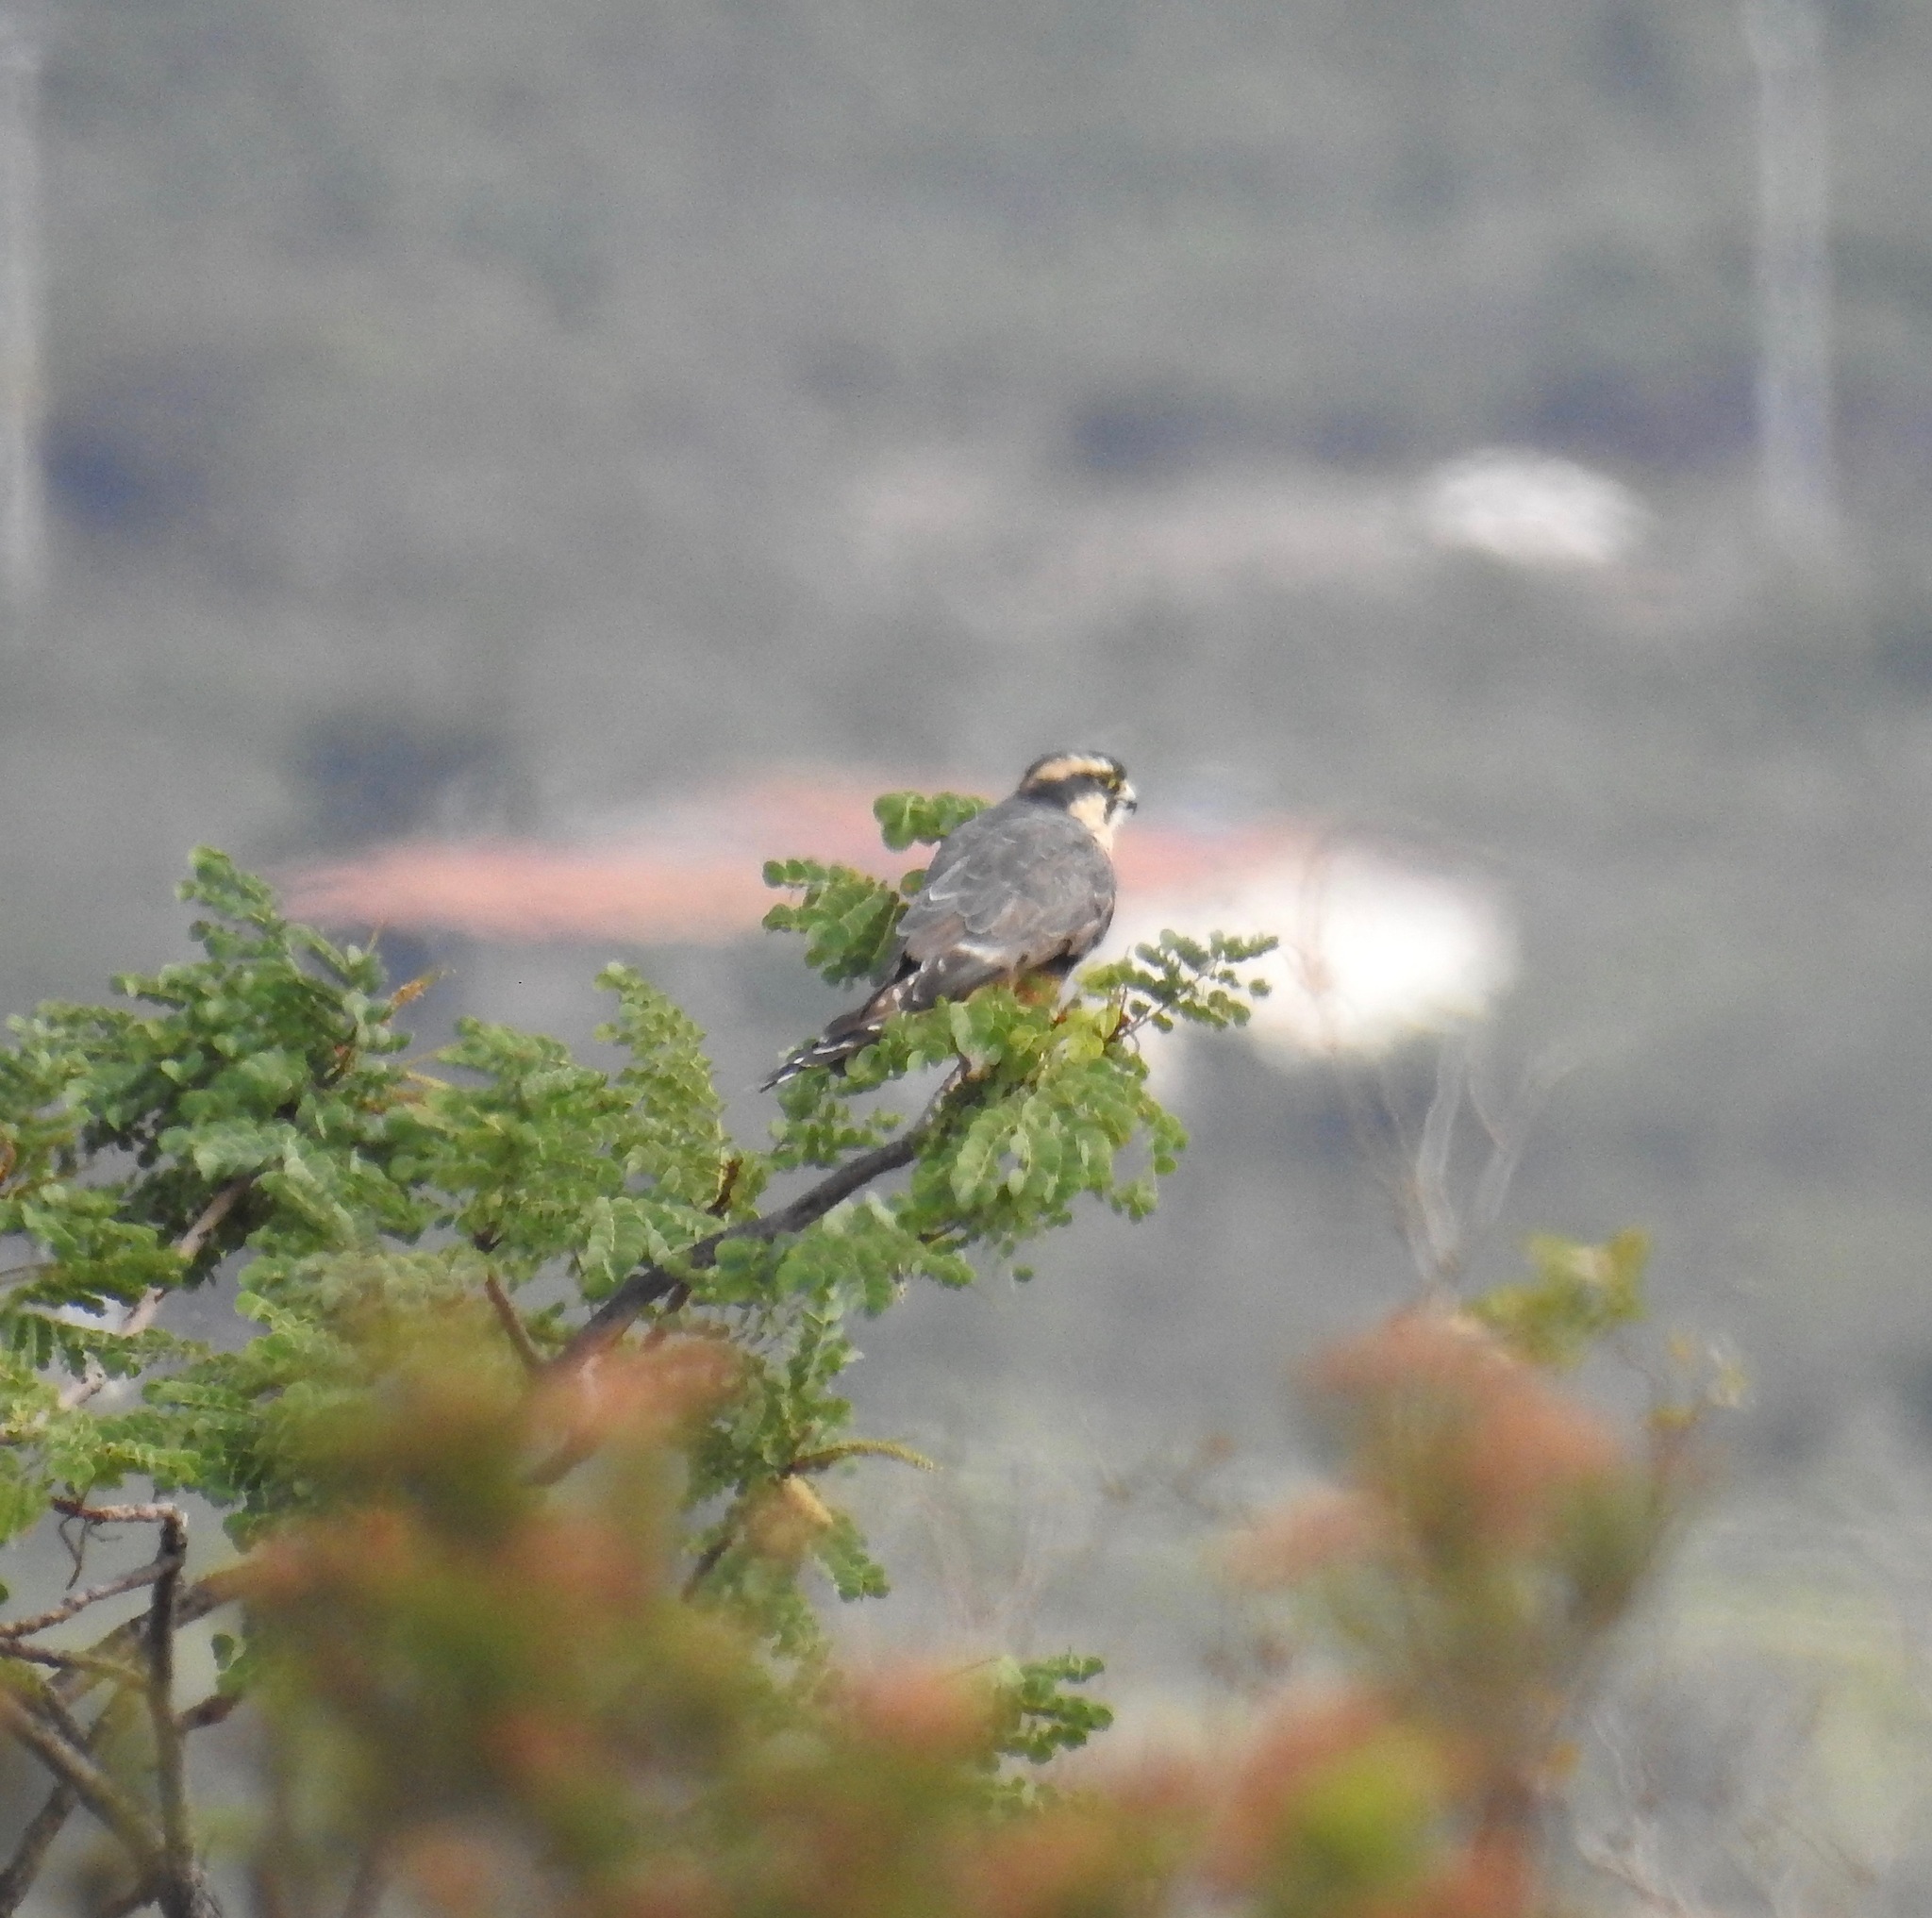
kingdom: Animalia
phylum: Chordata
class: Aves
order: Falconiformes
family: Falconidae
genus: Falco
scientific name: Falco femoralis
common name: Aplomado falcon
